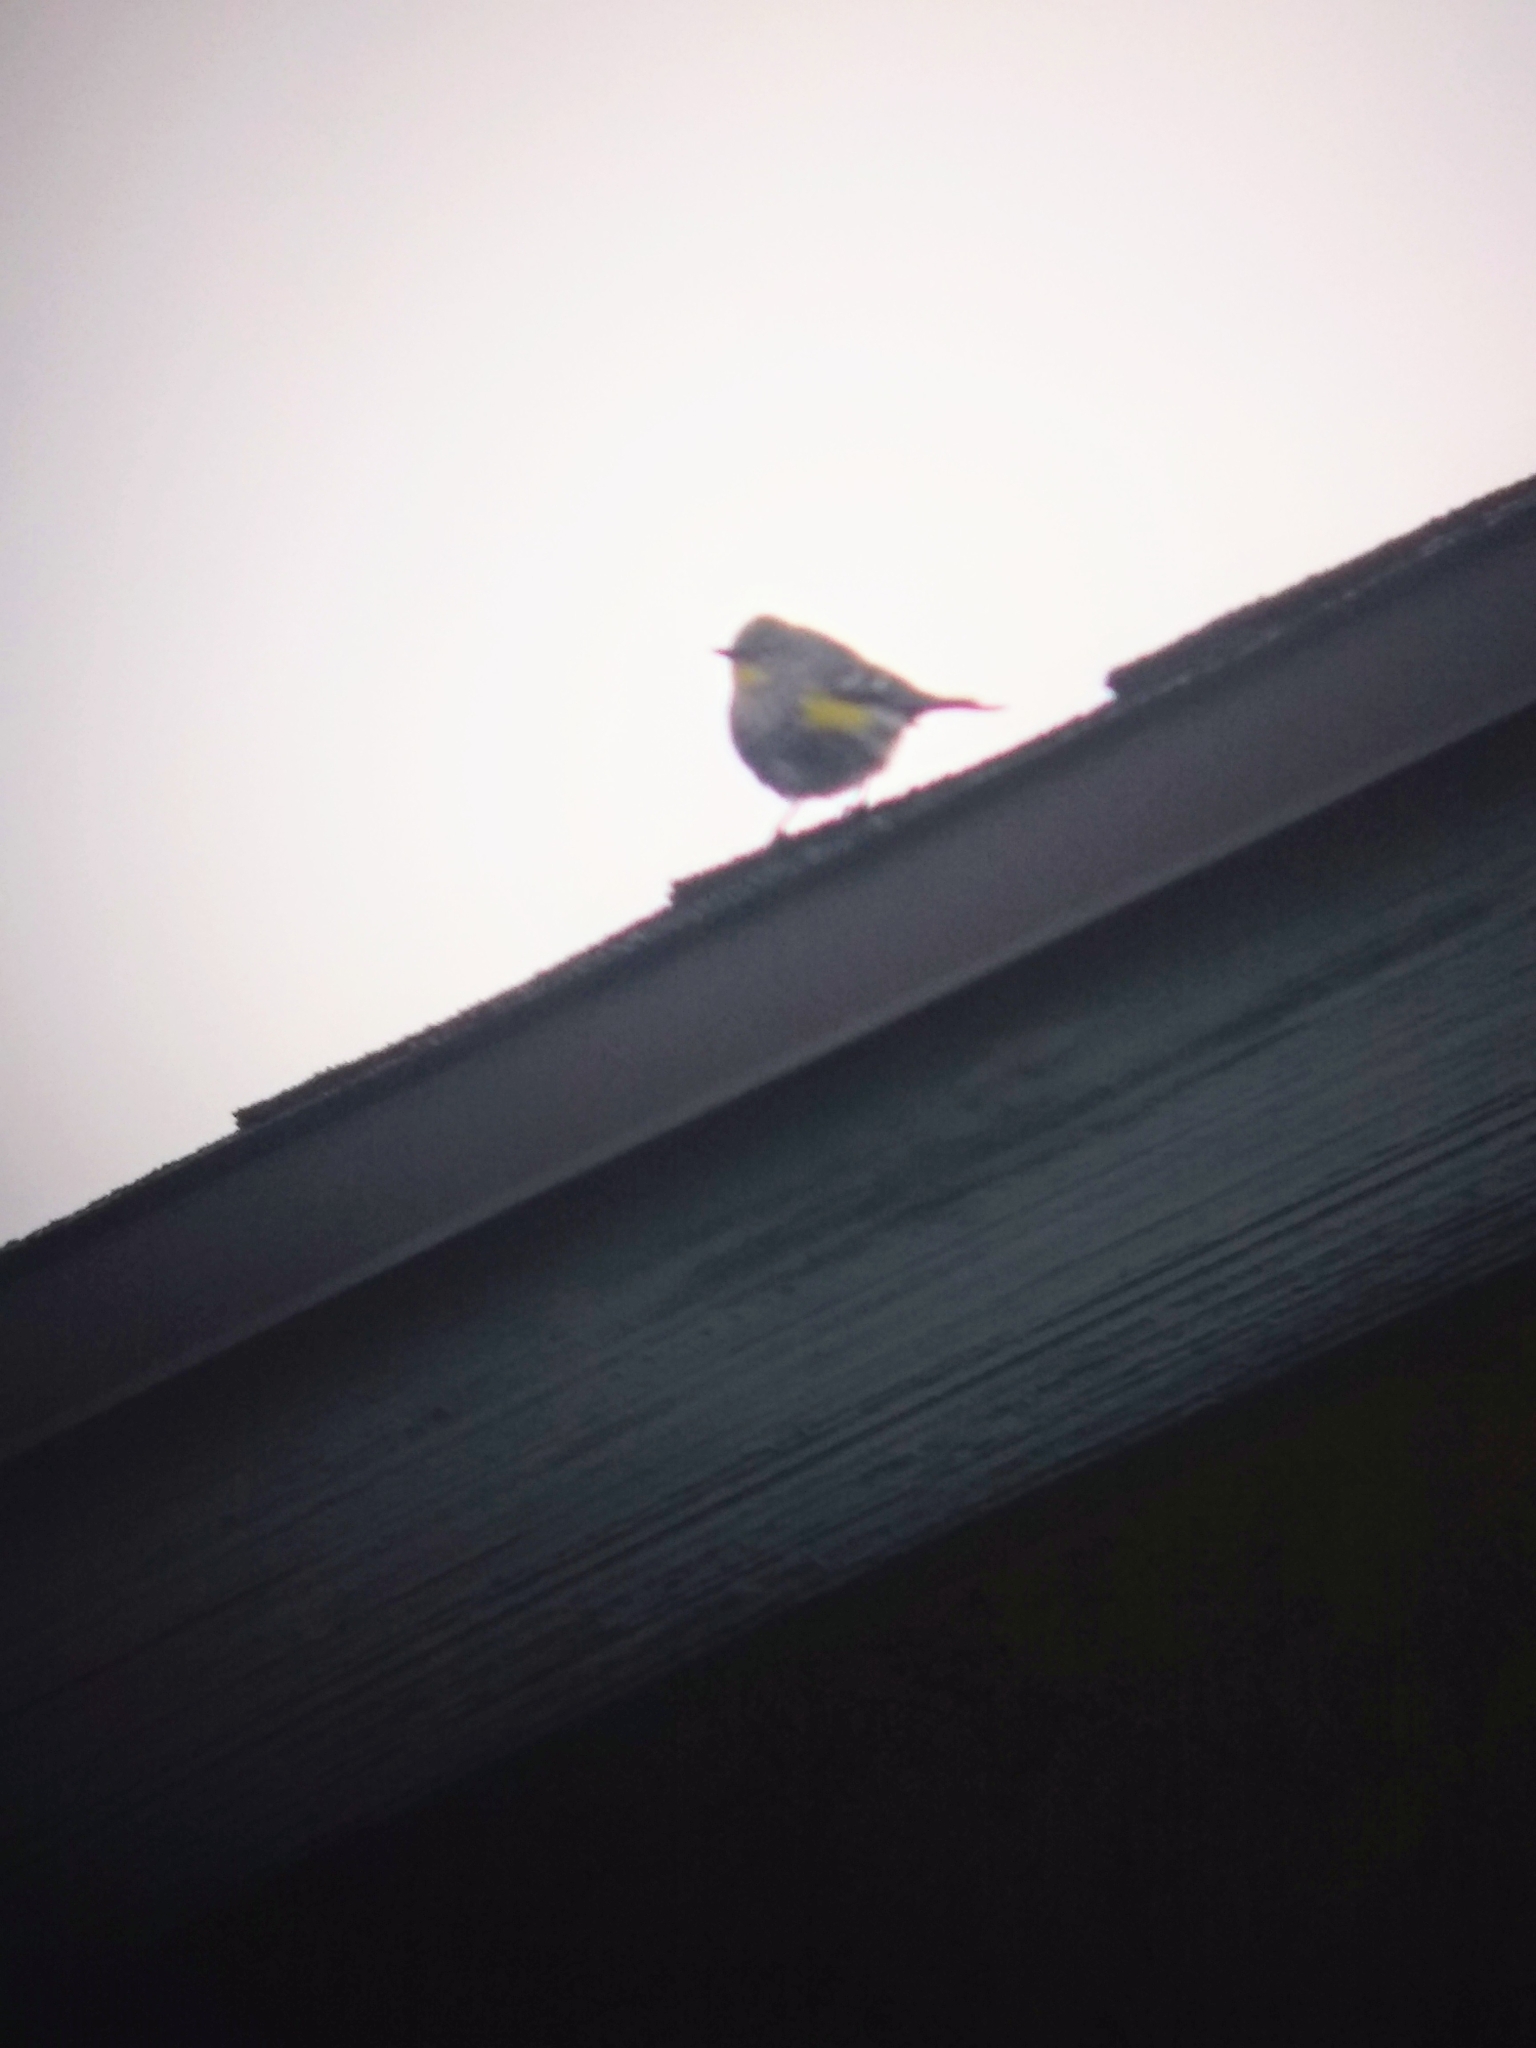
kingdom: Animalia
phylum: Chordata
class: Aves
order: Passeriformes
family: Parulidae
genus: Setophaga
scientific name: Setophaga coronata
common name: Myrtle warbler
